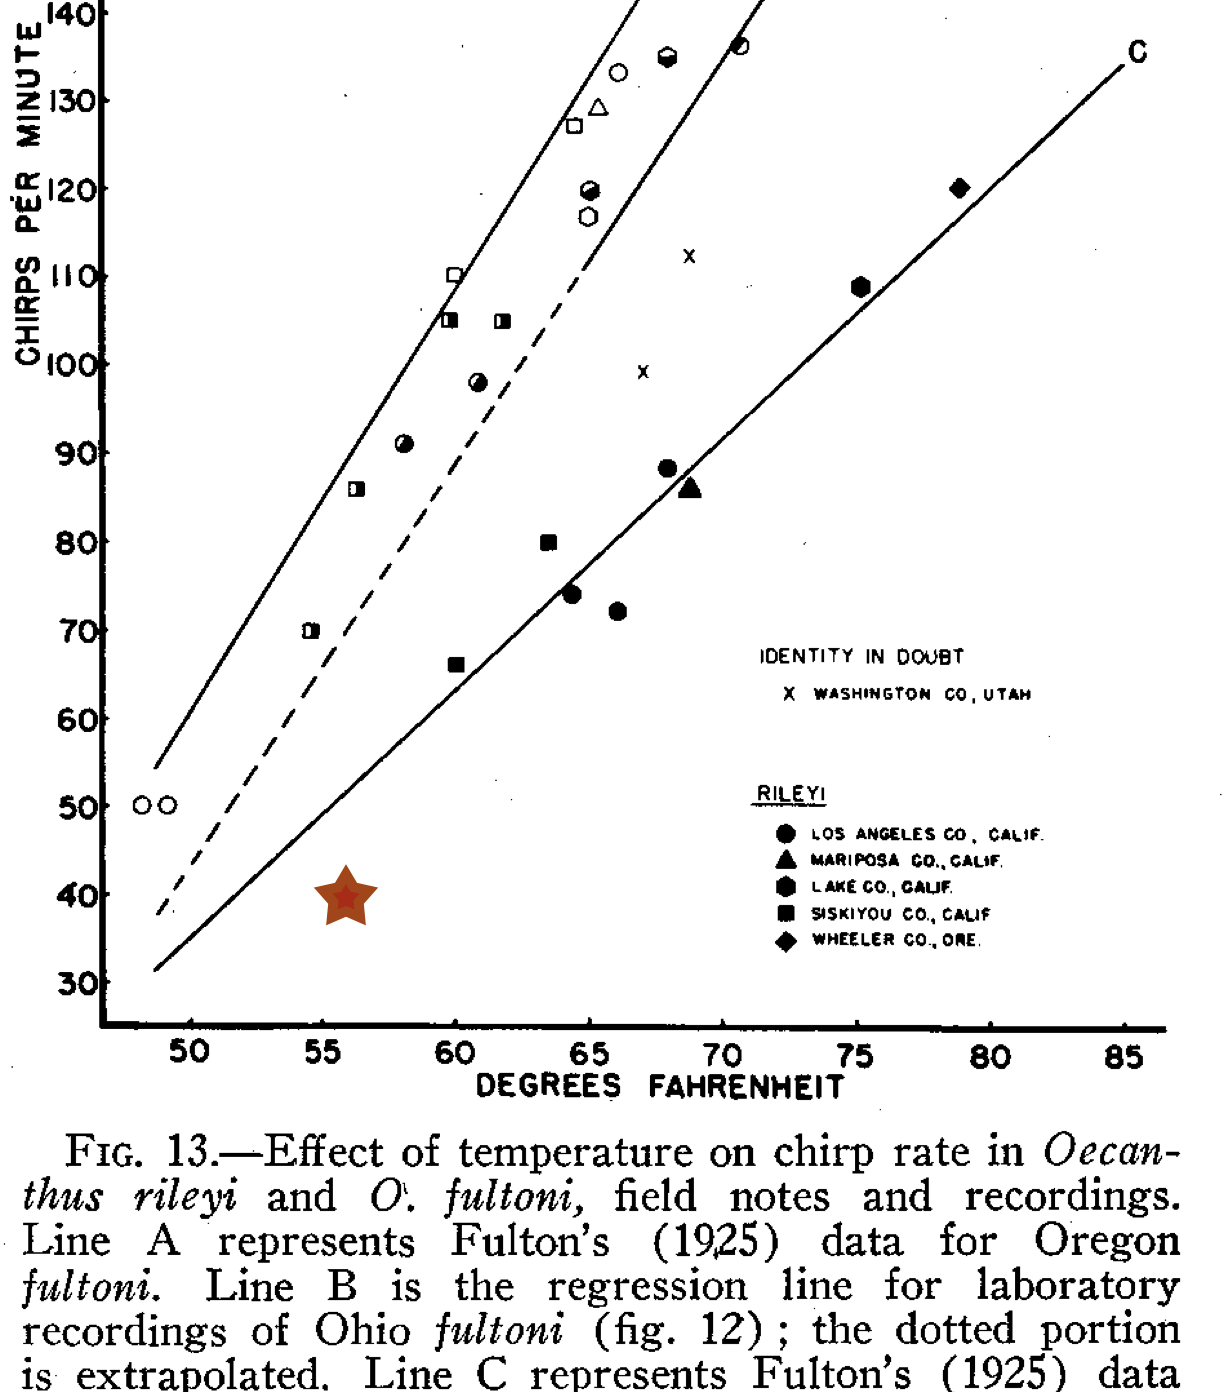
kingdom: Animalia
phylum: Arthropoda
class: Insecta
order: Orthoptera
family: Gryllidae
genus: Oecanthus
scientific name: Oecanthus rileyi
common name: Riley's tree cricket
